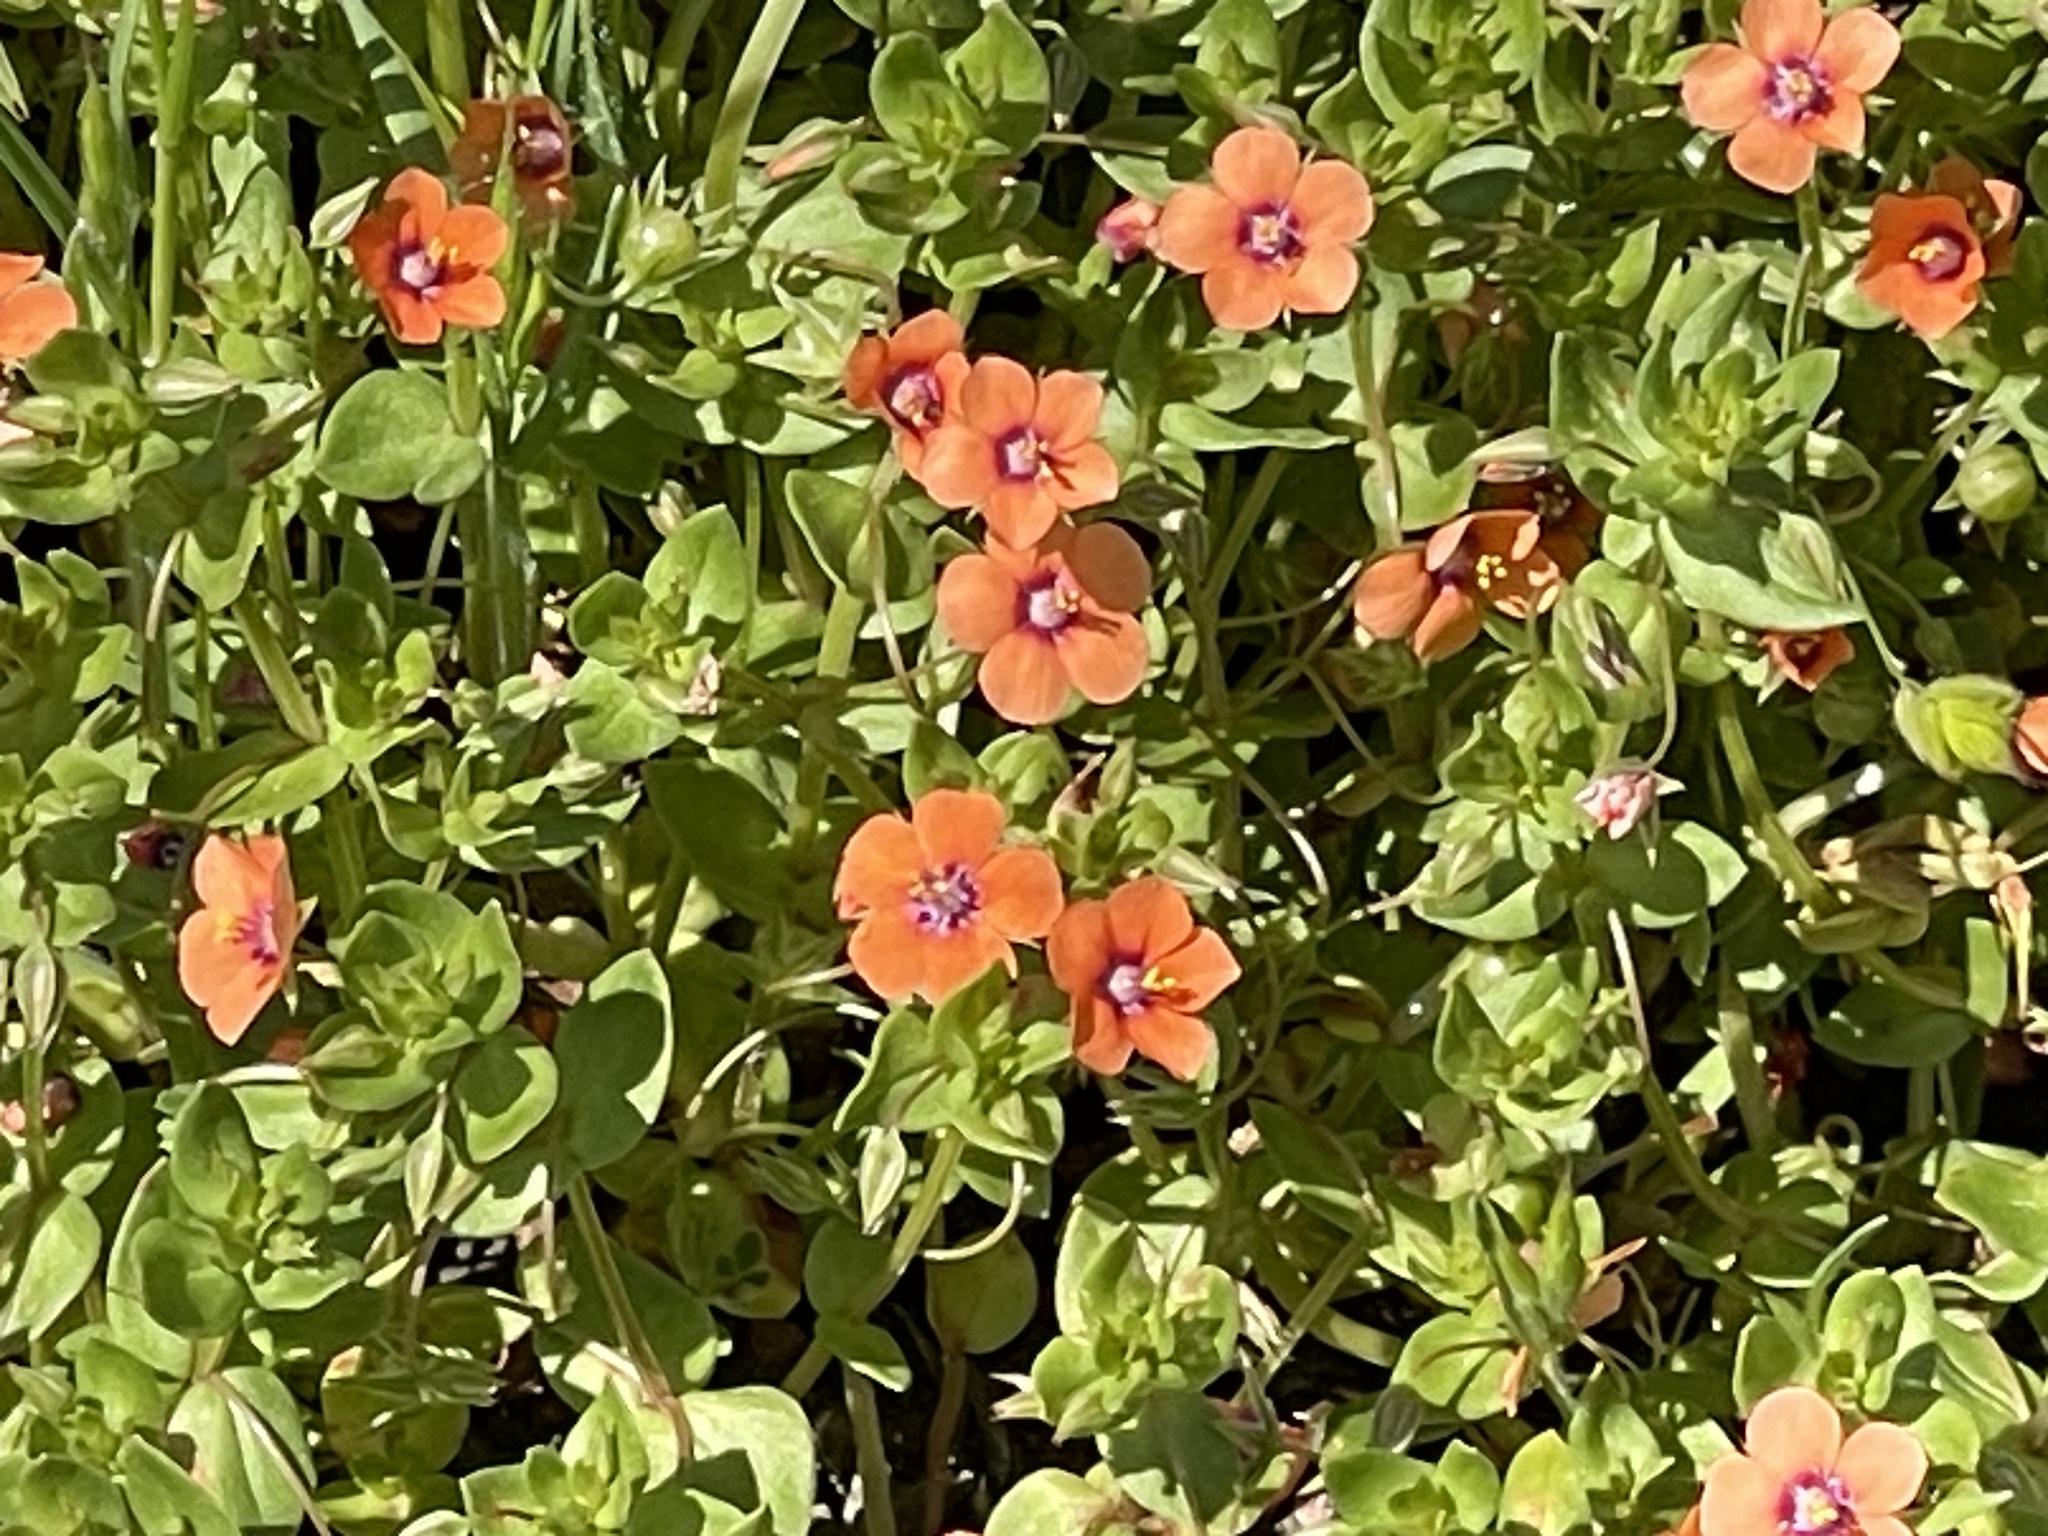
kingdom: Plantae
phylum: Tracheophyta
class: Magnoliopsida
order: Ericales
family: Primulaceae
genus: Lysimachia
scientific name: Lysimachia arvensis
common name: Scarlet pimpernel
